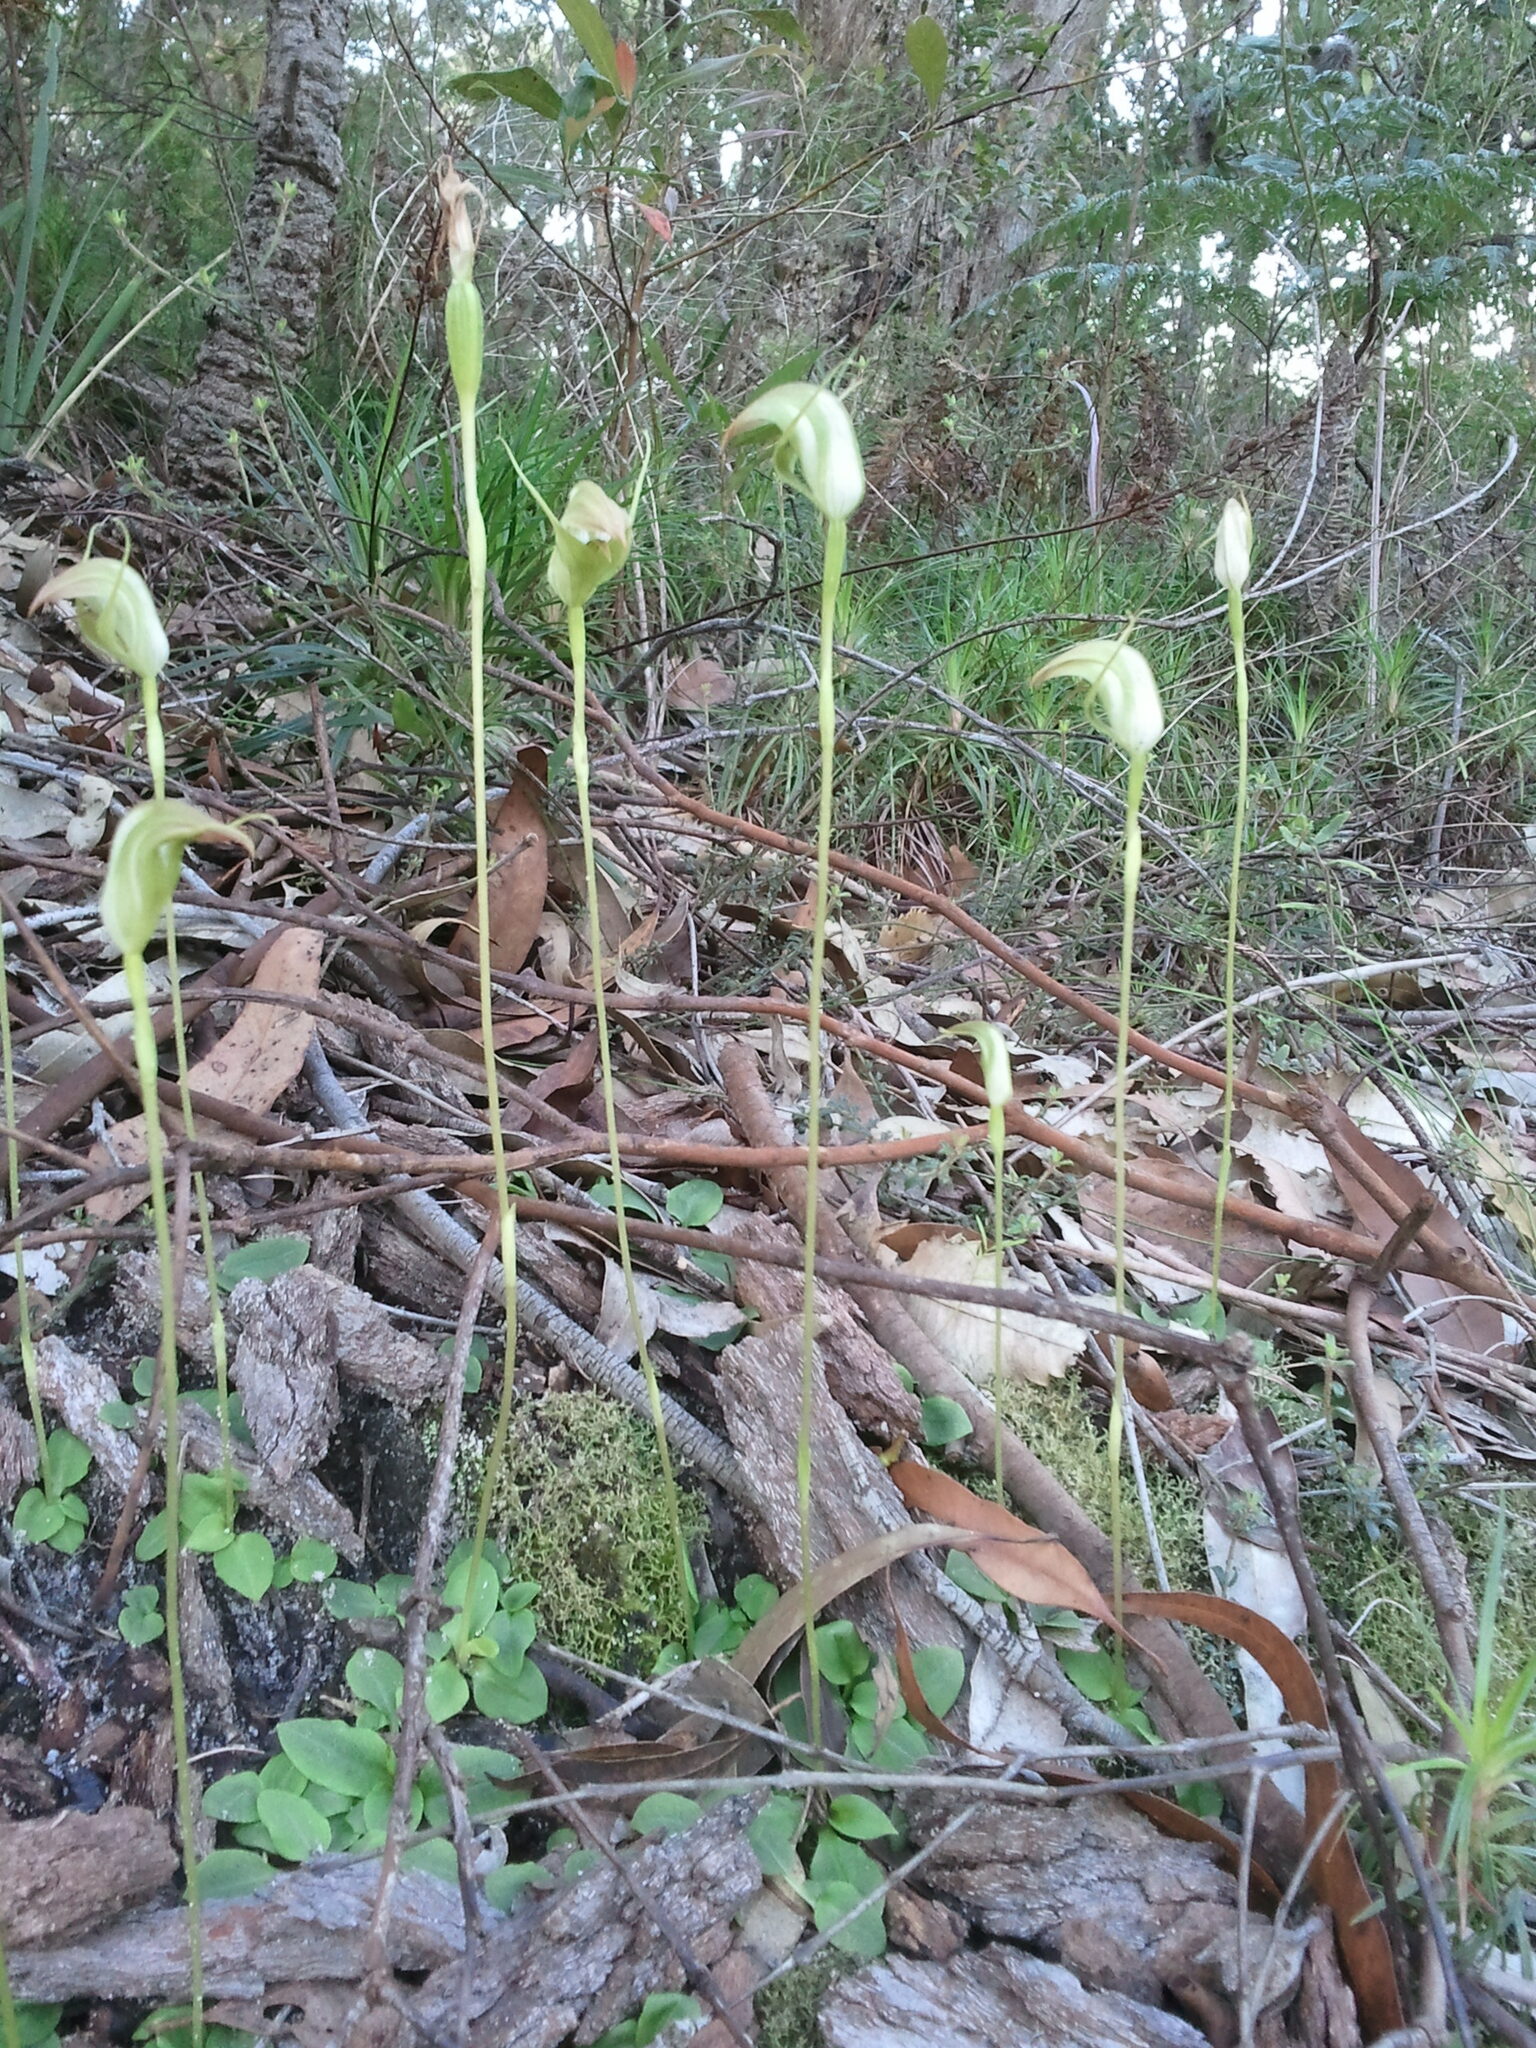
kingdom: Plantae
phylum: Tracheophyta
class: Liliopsida
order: Asparagales
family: Orchidaceae
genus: Pterostylis
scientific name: Pterostylis acuminata
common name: Pointed greenhood
